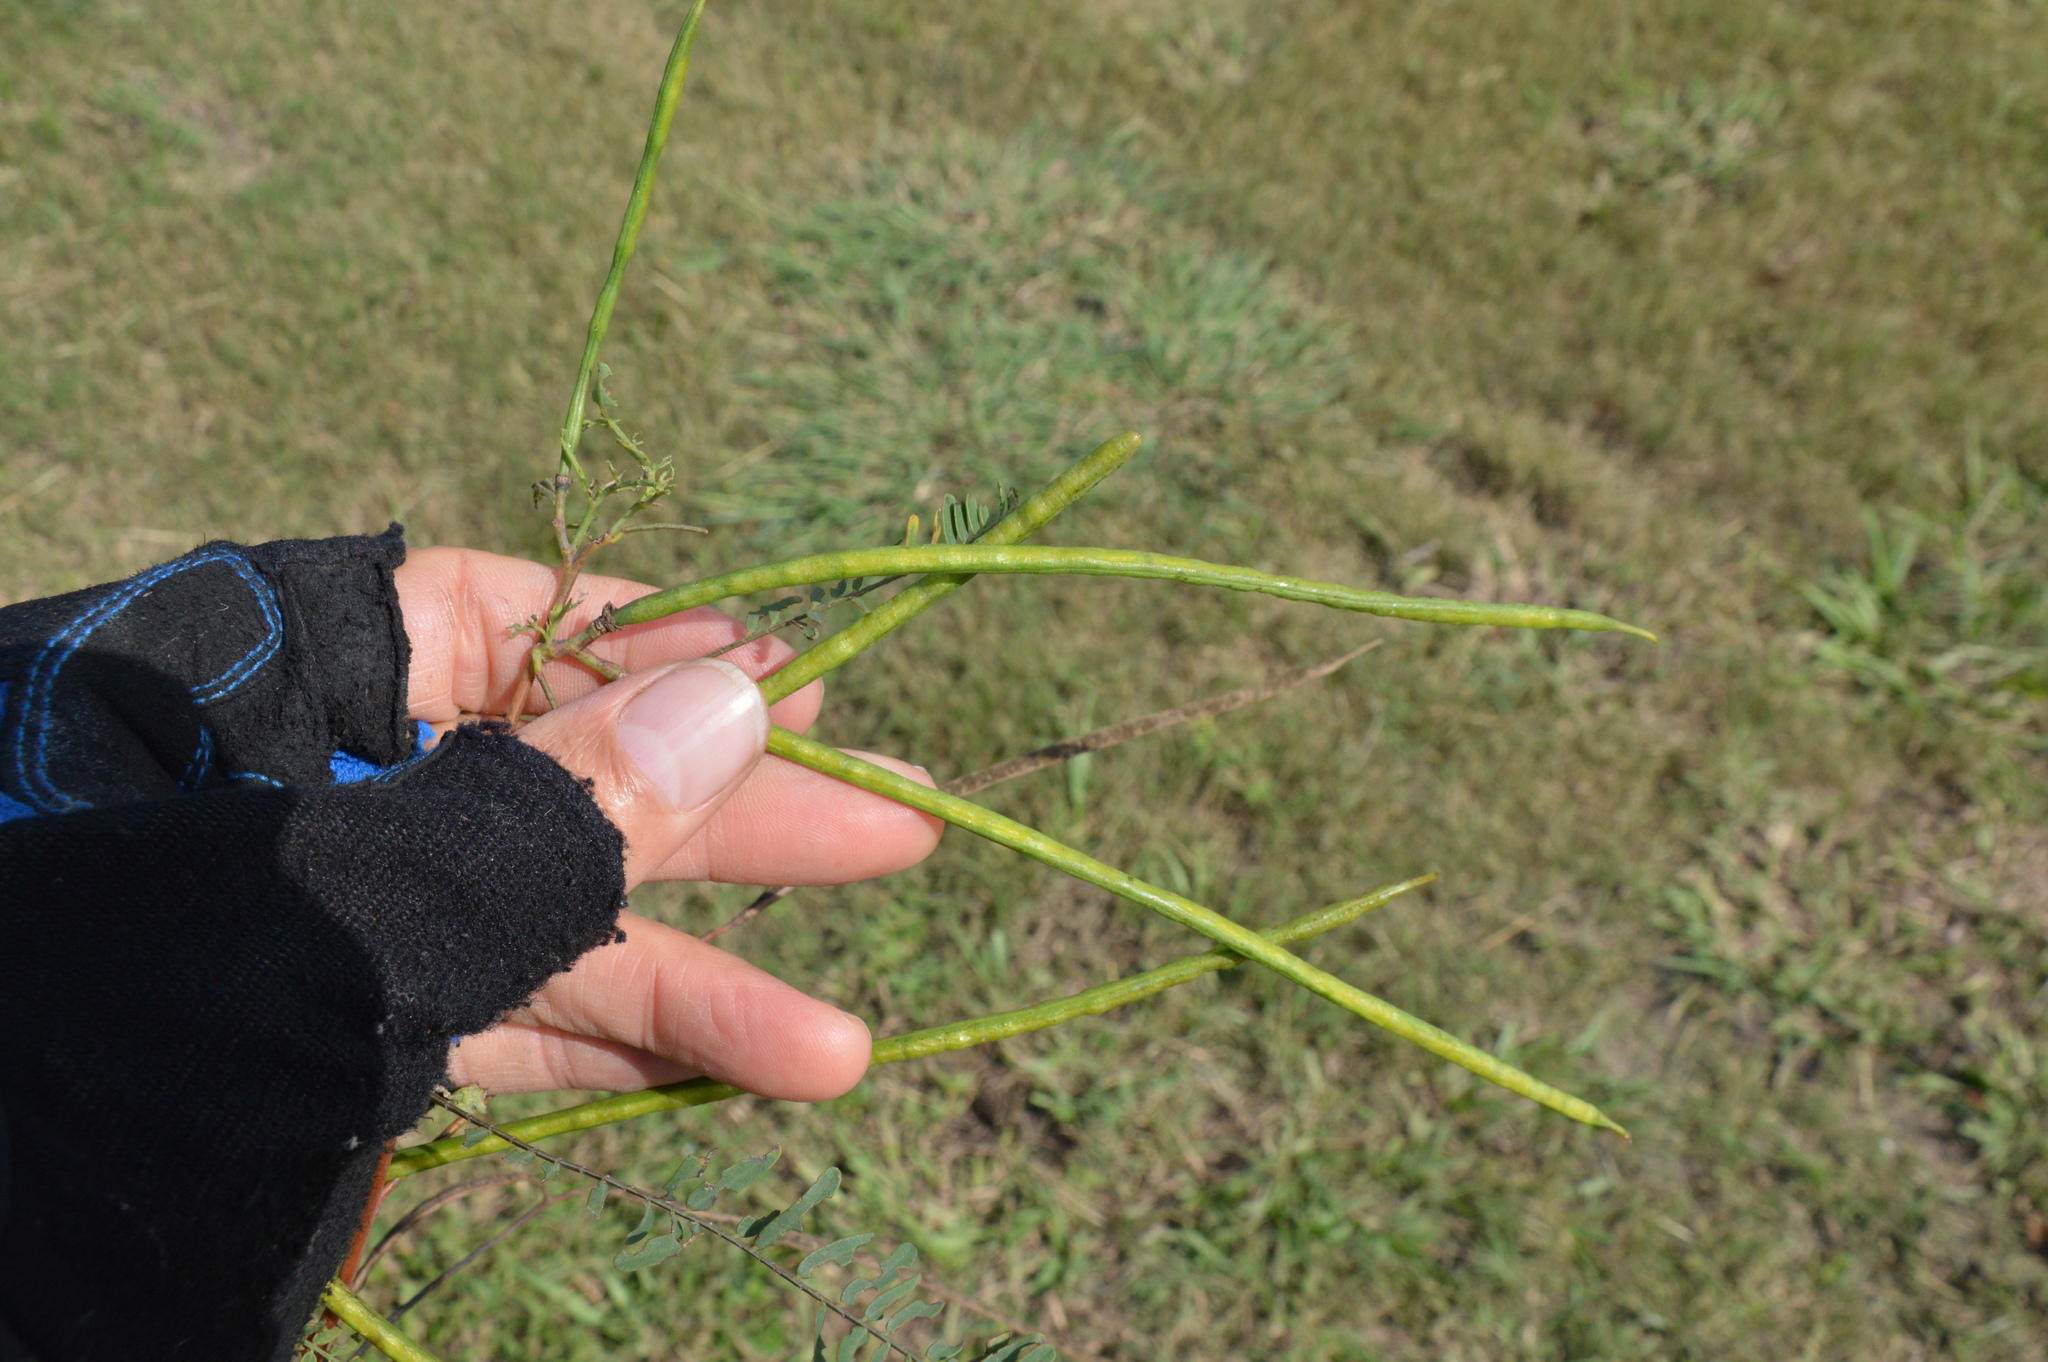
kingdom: Plantae
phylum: Tracheophyta
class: Magnoliopsida
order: Fabales
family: Fabaceae
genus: Sesbania
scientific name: Sesbania herbacea
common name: Bigpod sesbania
